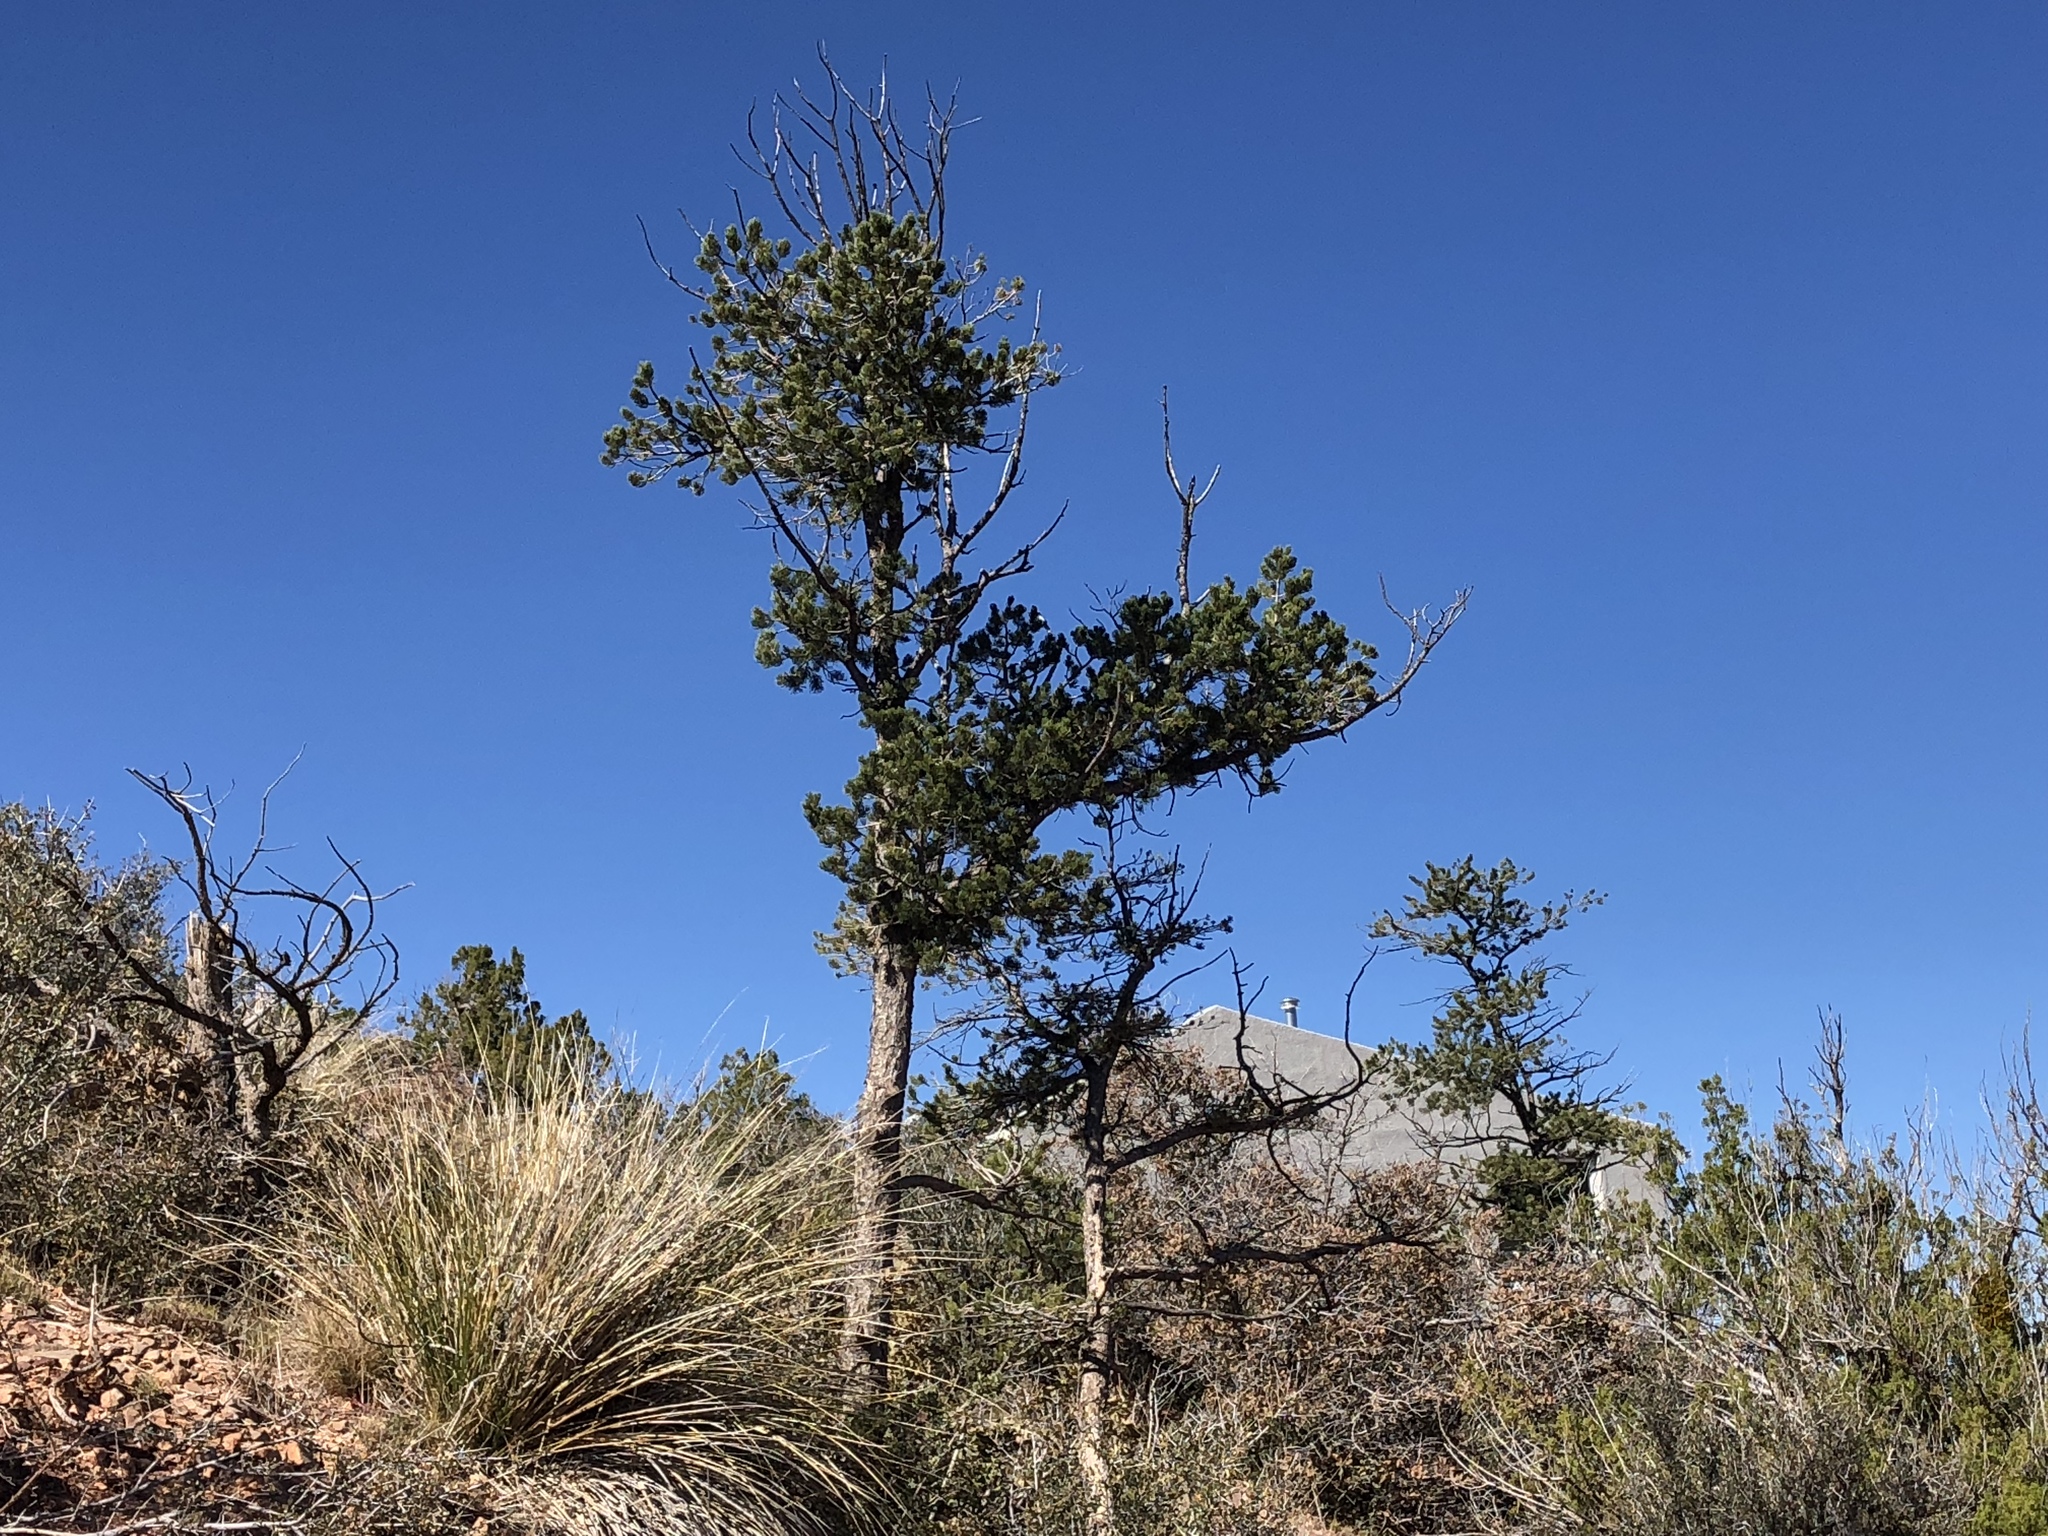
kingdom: Plantae
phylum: Tracheophyta
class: Pinopsida
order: Pinales
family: Pinaceae
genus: Pinus
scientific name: Pinus edulis
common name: Colorado pinyon
